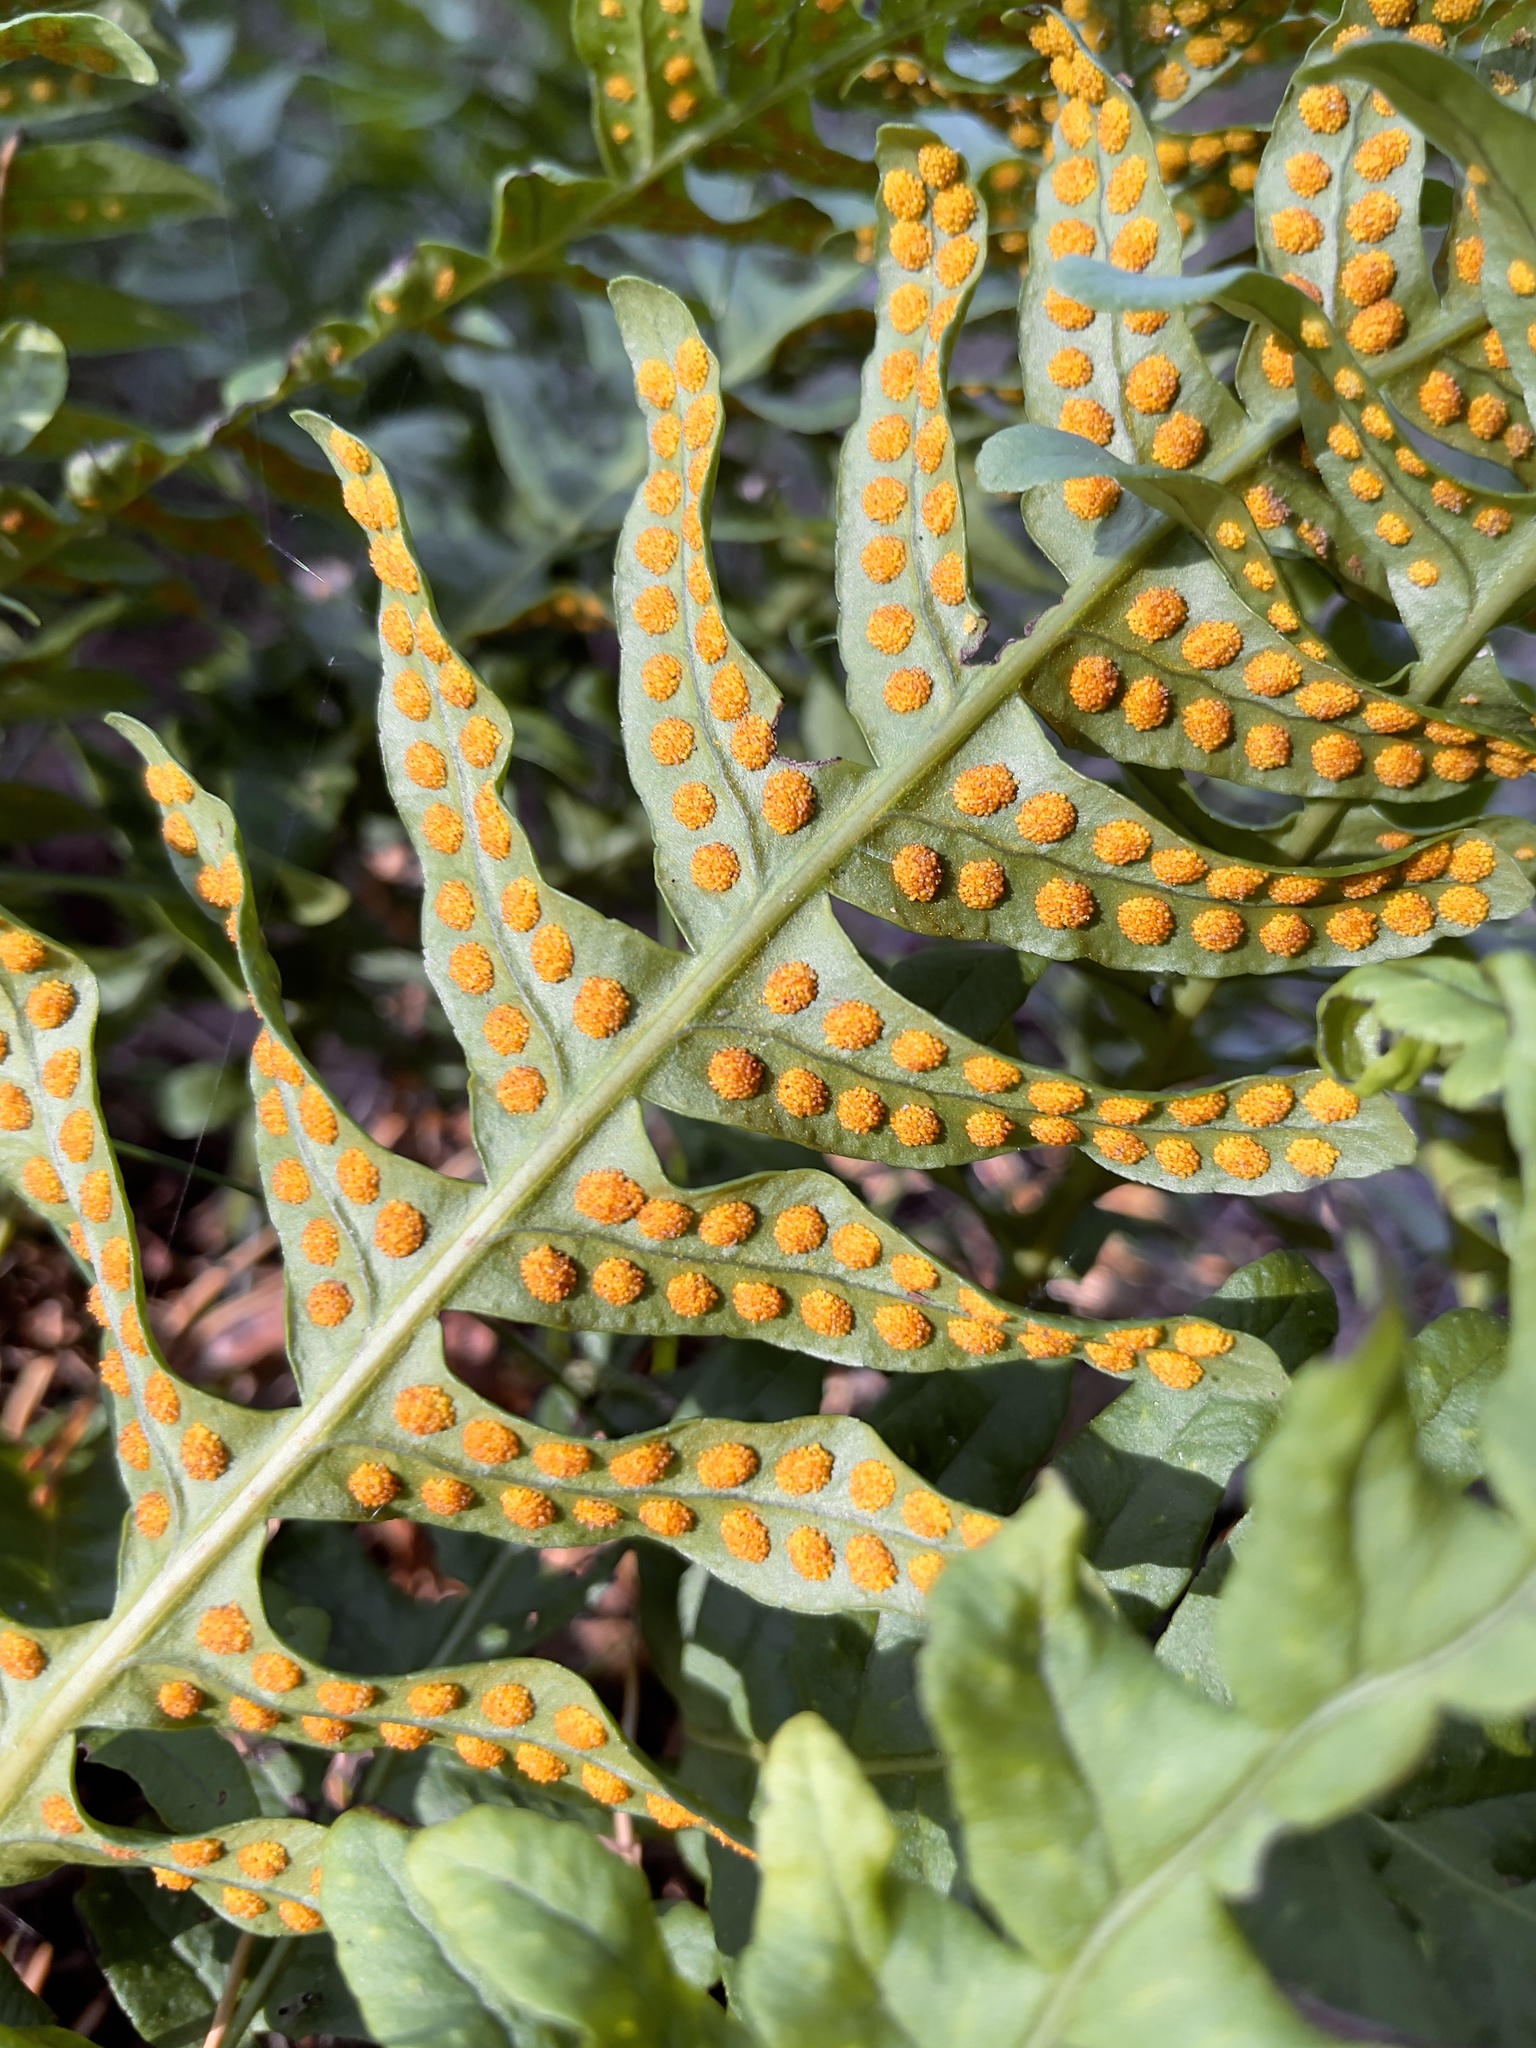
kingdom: Plantae
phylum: Tracheophyta
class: Polypodiopsida
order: Polypodiales
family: Polypodiaceae
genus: Polypodium
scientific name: Polypodium vulgare
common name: Common polypody
